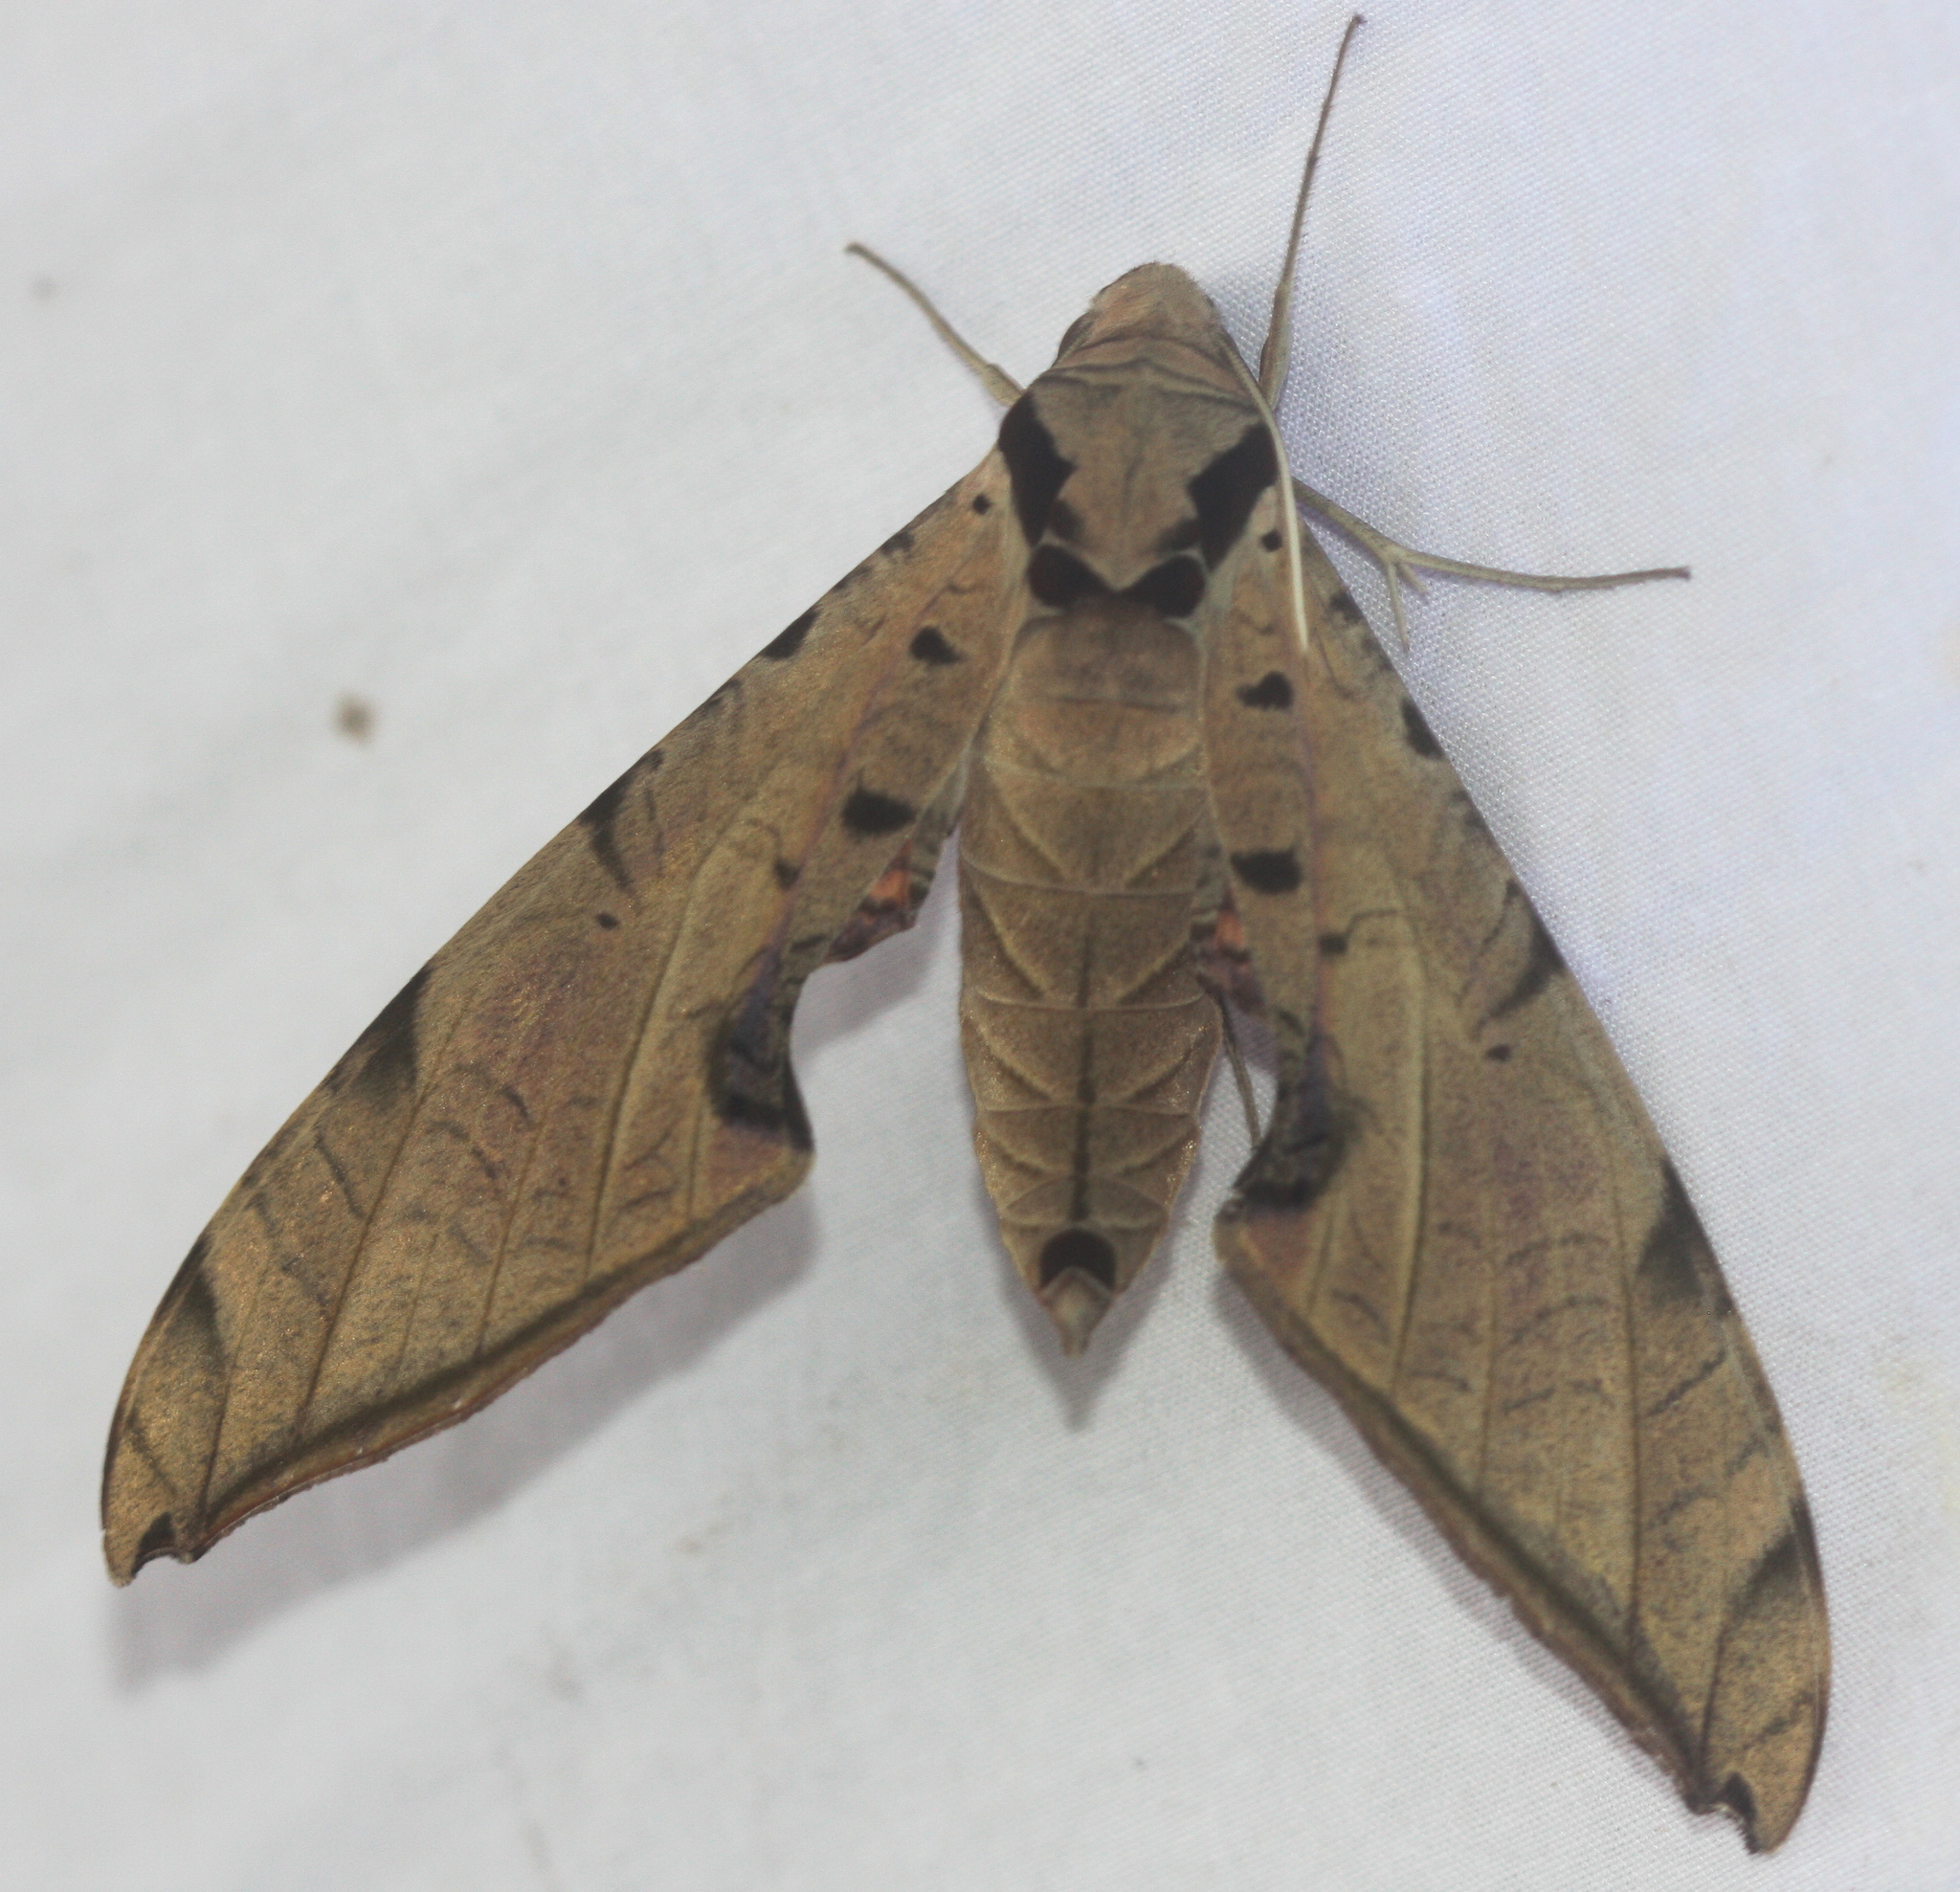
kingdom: Animalia
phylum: Arthropoda
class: Insecta
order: Lepidoptera
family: Sphingidae
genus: Protambulyx
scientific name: Protambulyx strigilis
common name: Streaked sphinx
